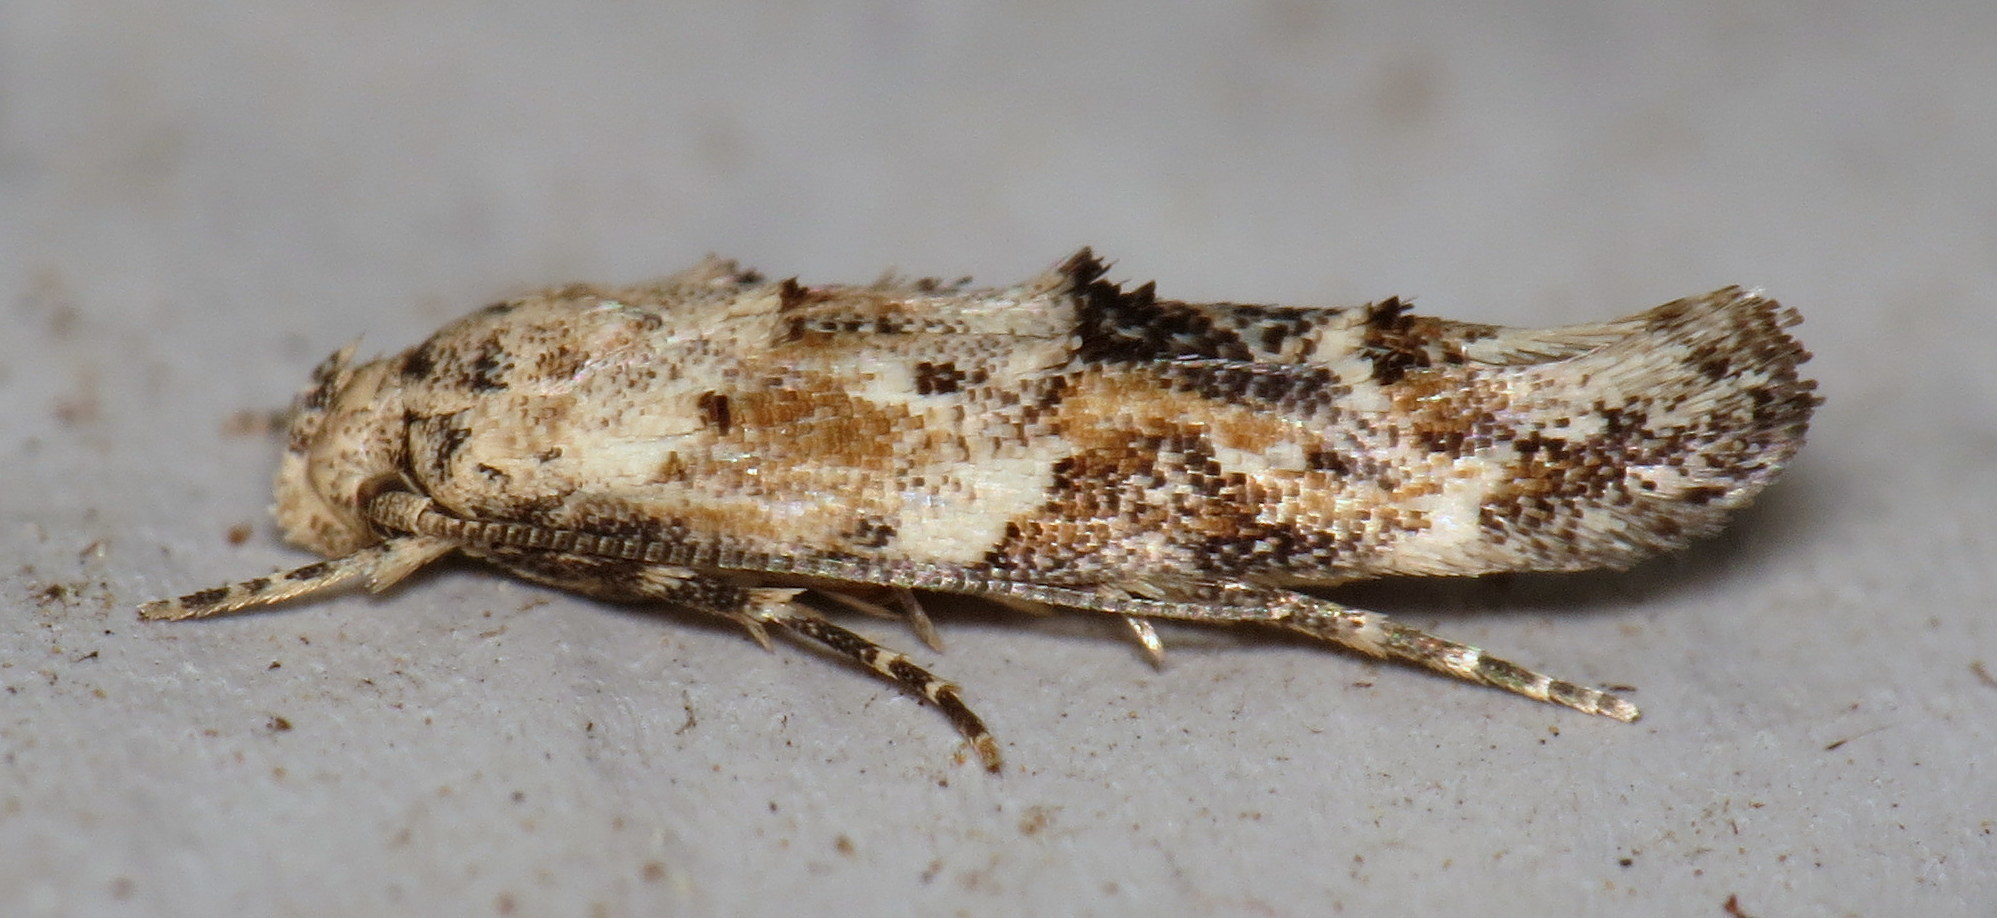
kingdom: Animalia
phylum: Arthropoda
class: Insecta
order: Lepidoptera
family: Momphidae
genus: Mompha
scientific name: Mompha stellella
